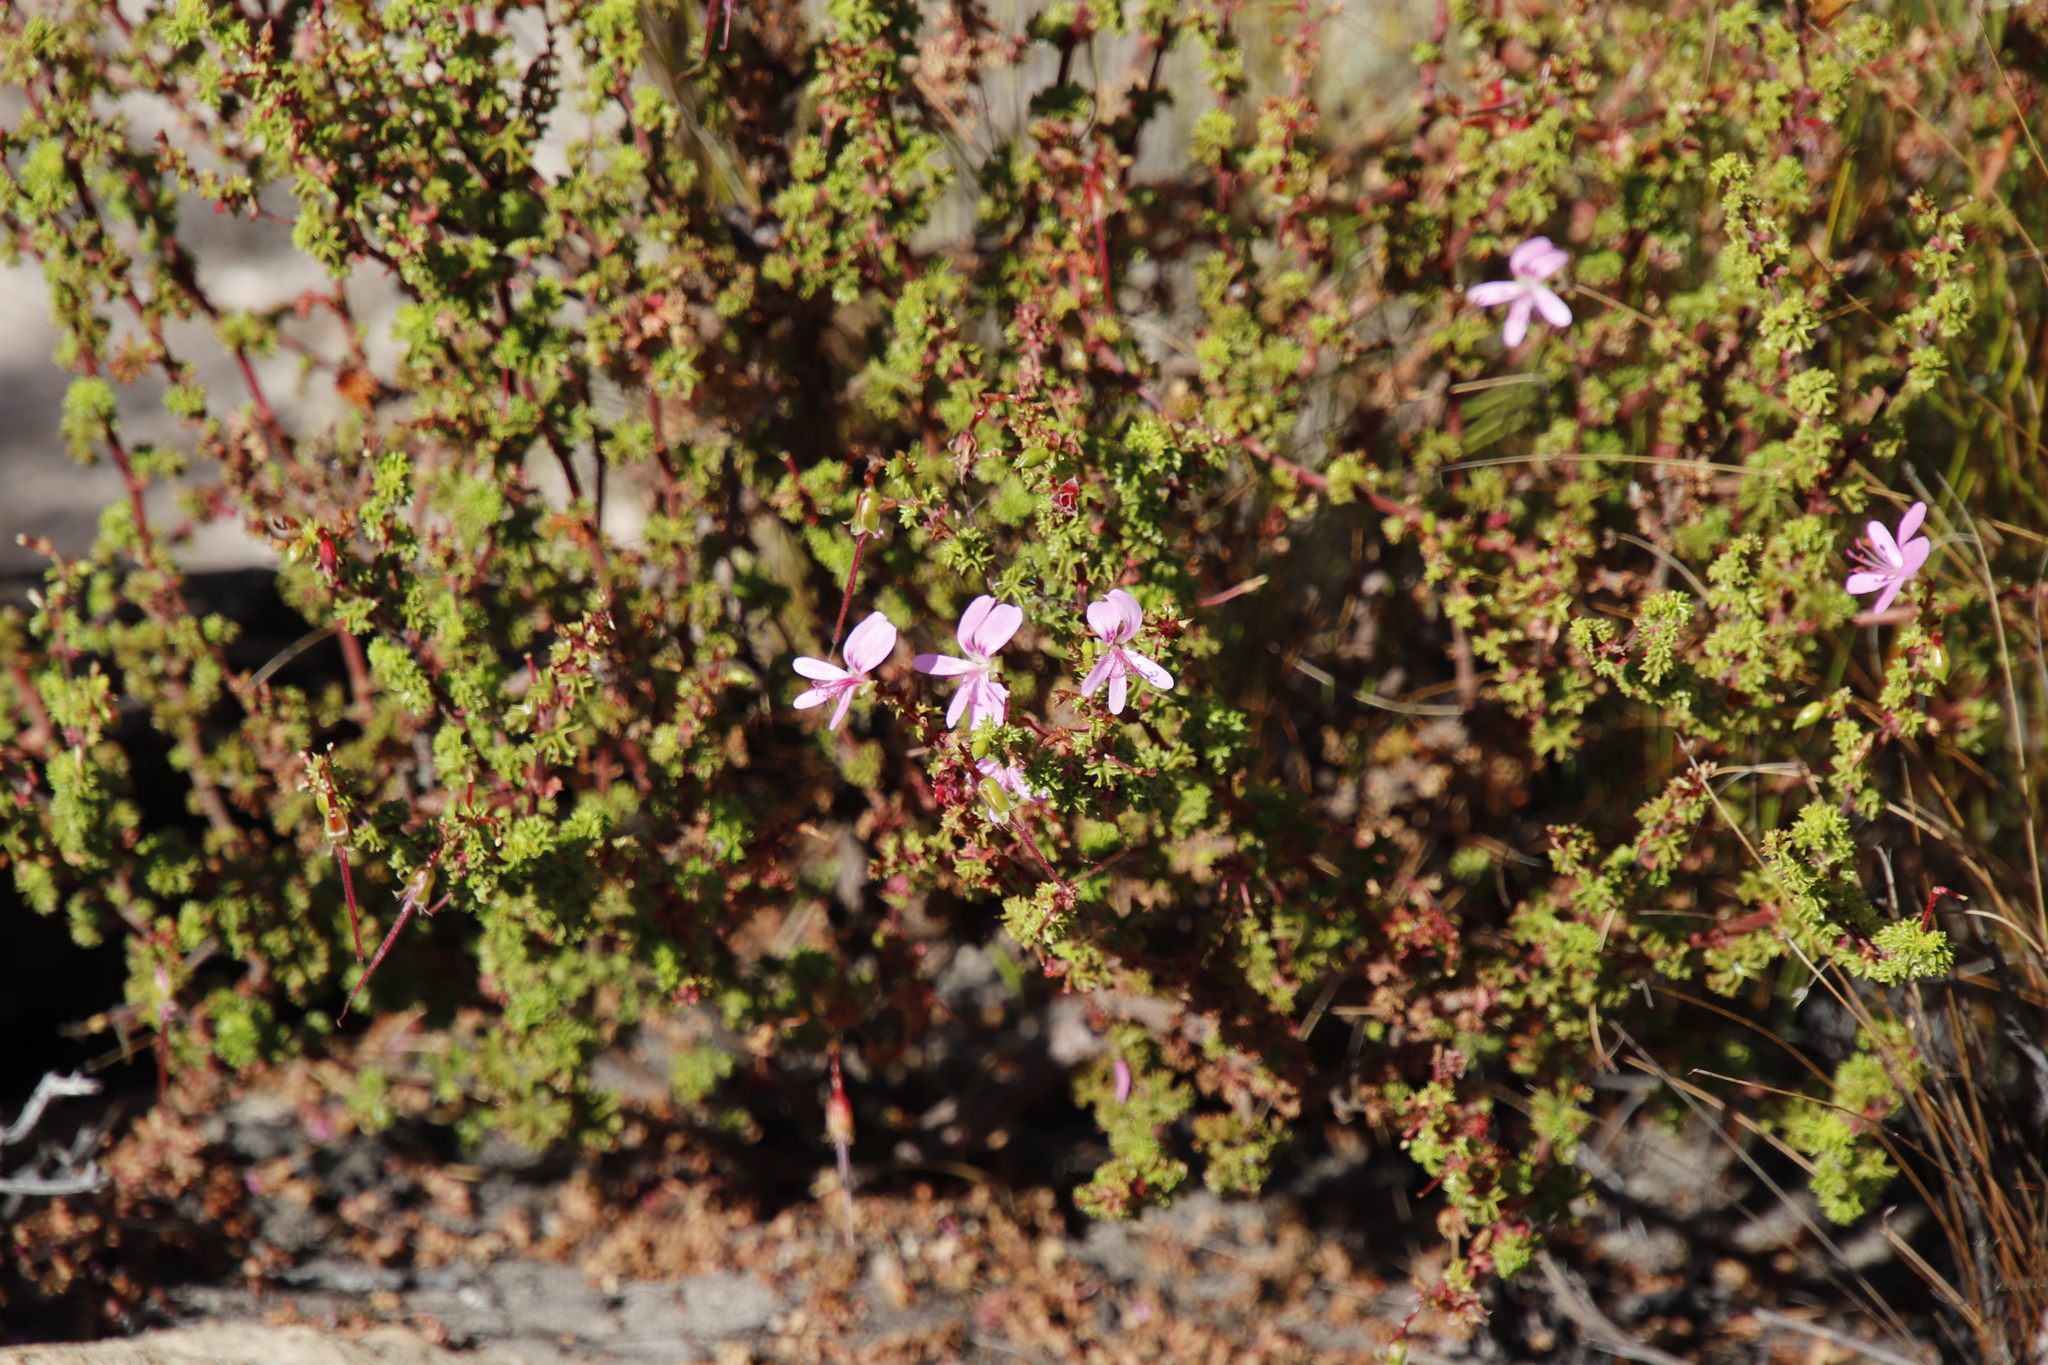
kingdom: Plantae
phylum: Tracheophyta
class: Magnoliopsida
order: Geraniales
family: Geraniaceae
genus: Pelargonium
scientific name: Pelargonium englerianum
